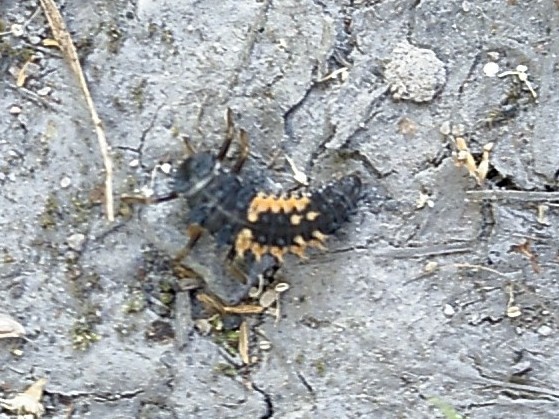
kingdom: Animalia
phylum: Arthropoda
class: Insecta
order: Coleoptera
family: Coccinellidae
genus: Harmonia
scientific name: Harmonia axyridis
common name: Harlequin ladybird
